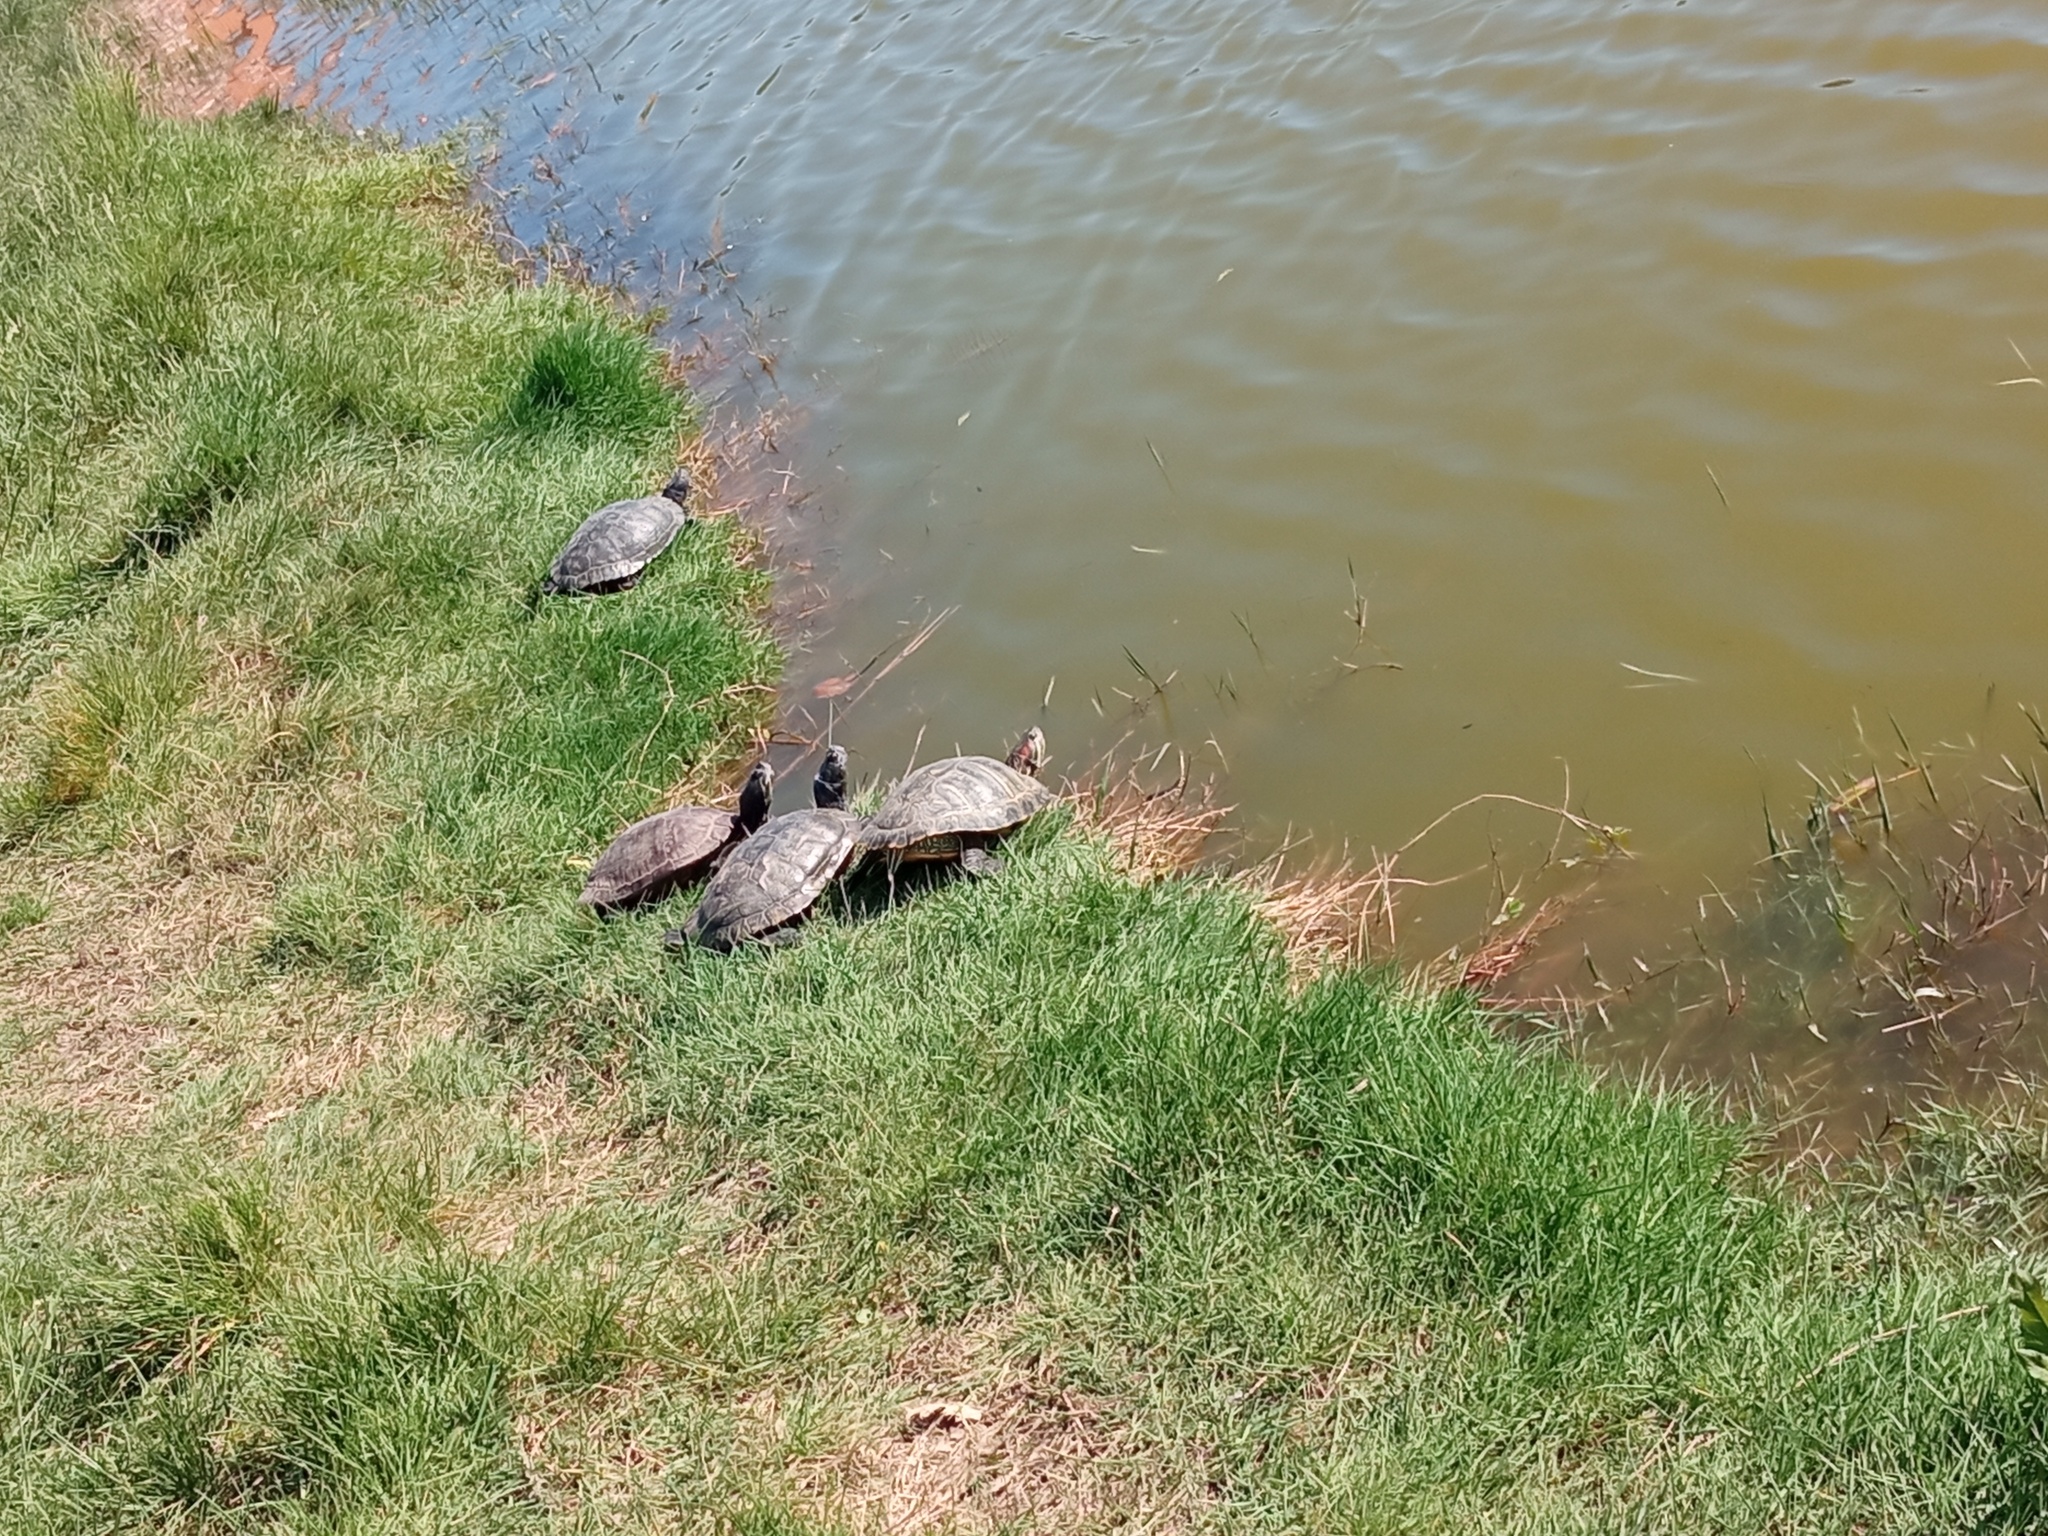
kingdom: Animalia
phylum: Chordata
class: Testudines
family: Emydidae
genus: Trachemys
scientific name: Trachemys scripta
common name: Slider
